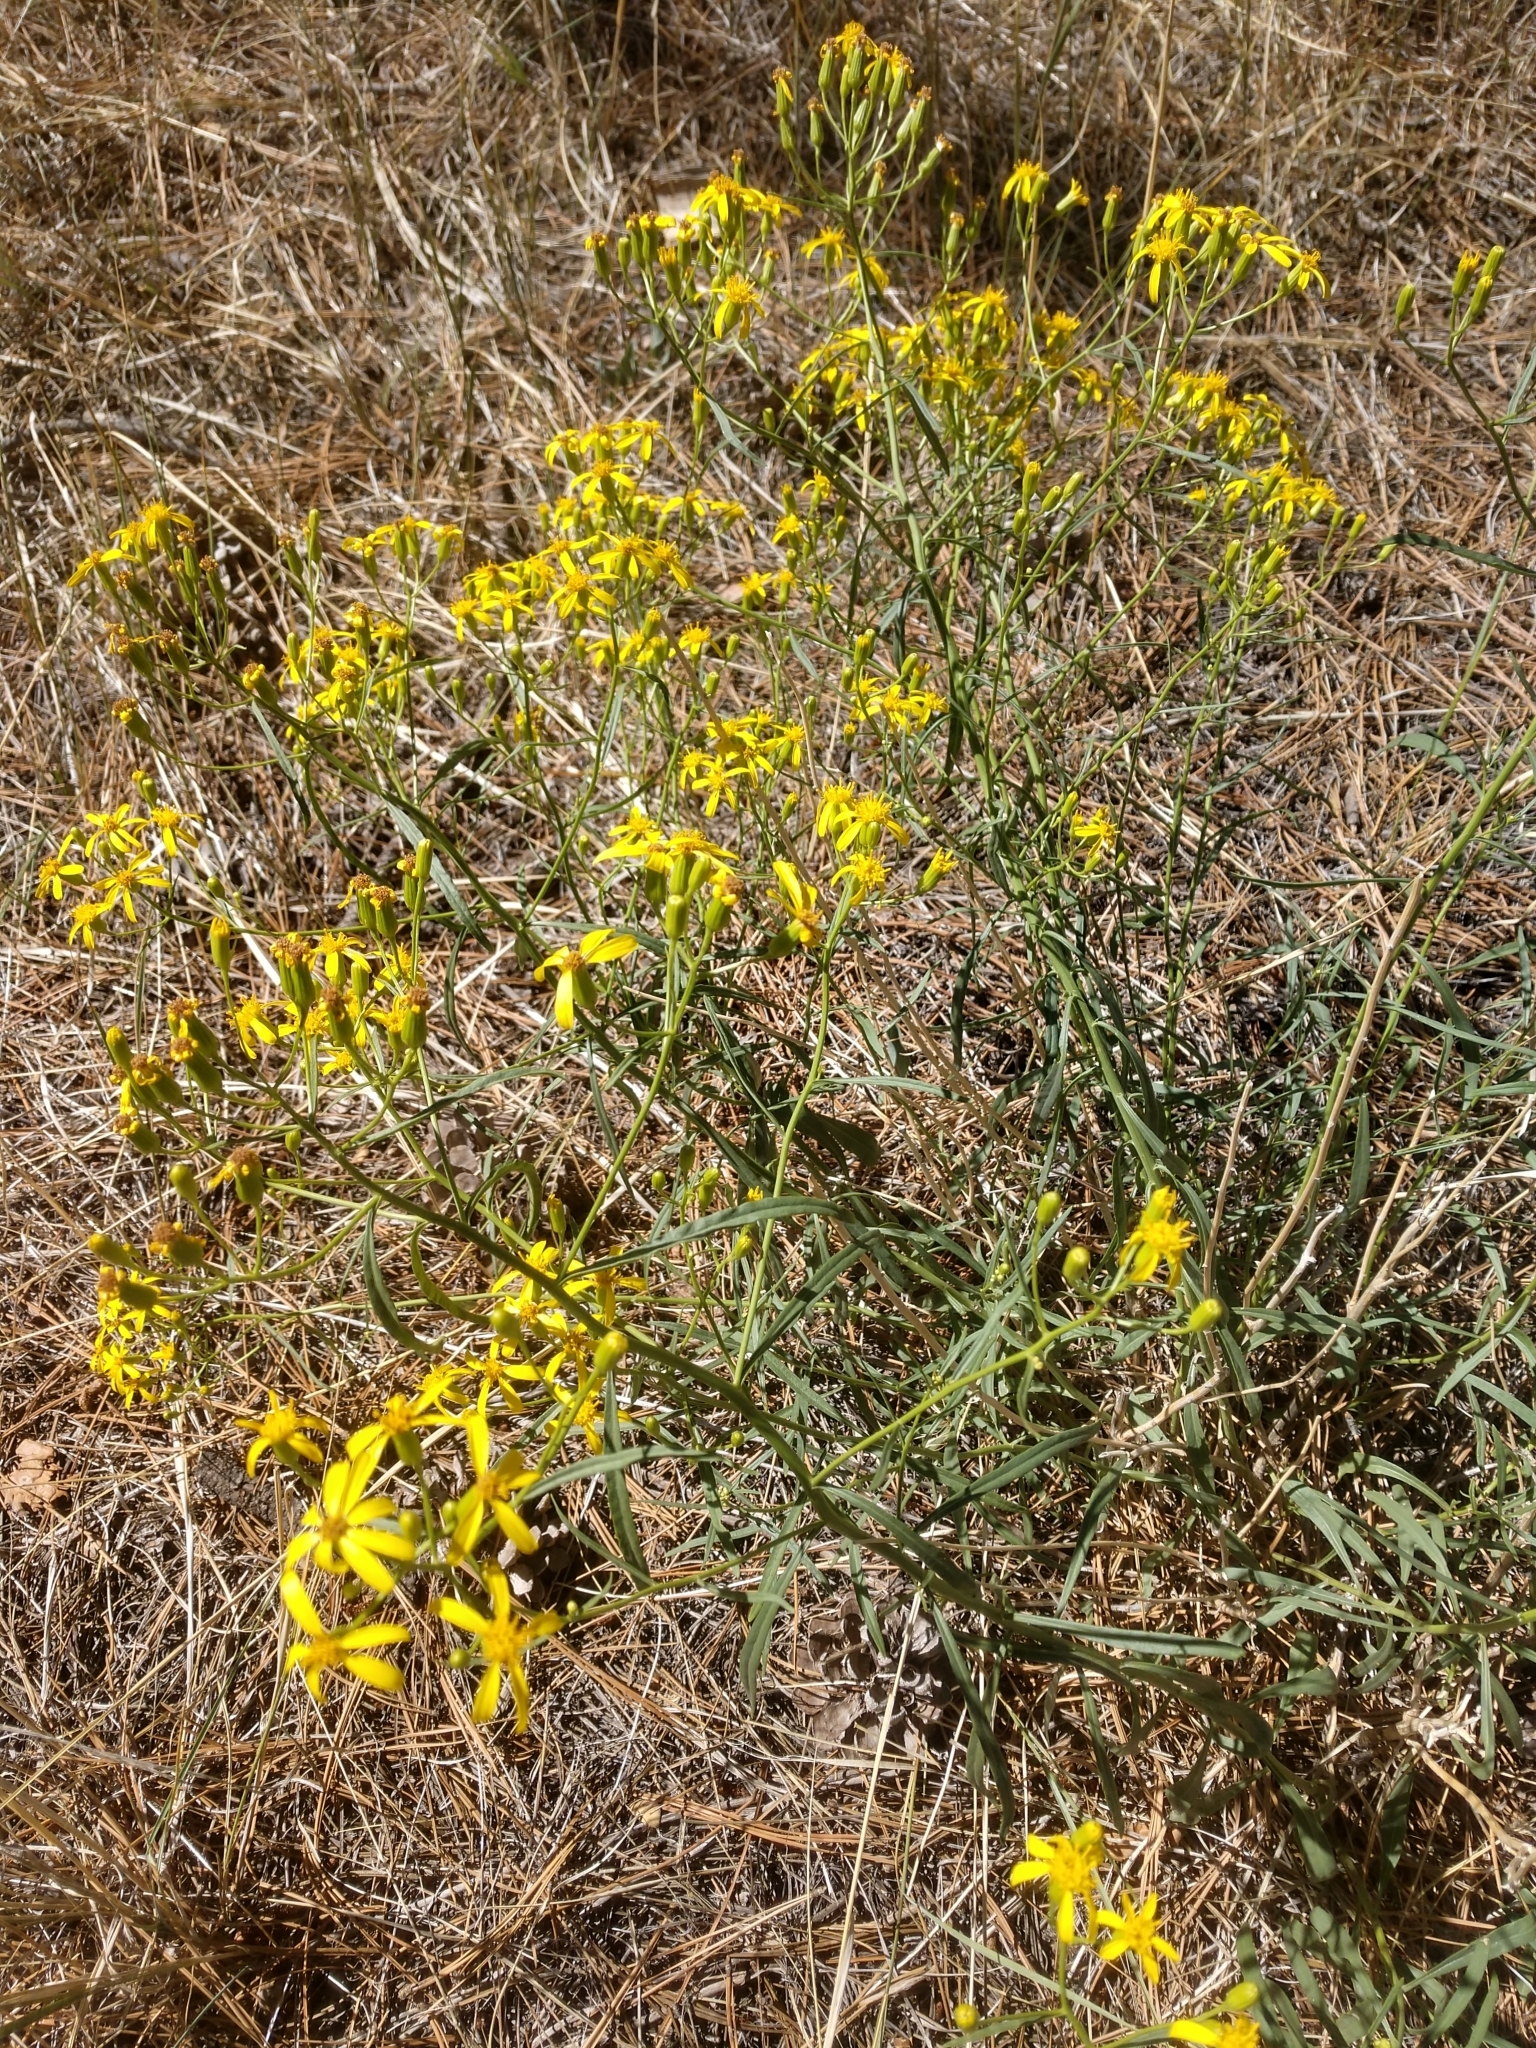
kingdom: Plantae
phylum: Tracheophyta
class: Magnoliopsida
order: Asterales
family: Asteraceae
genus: Senecio
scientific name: Senecio spartioides
